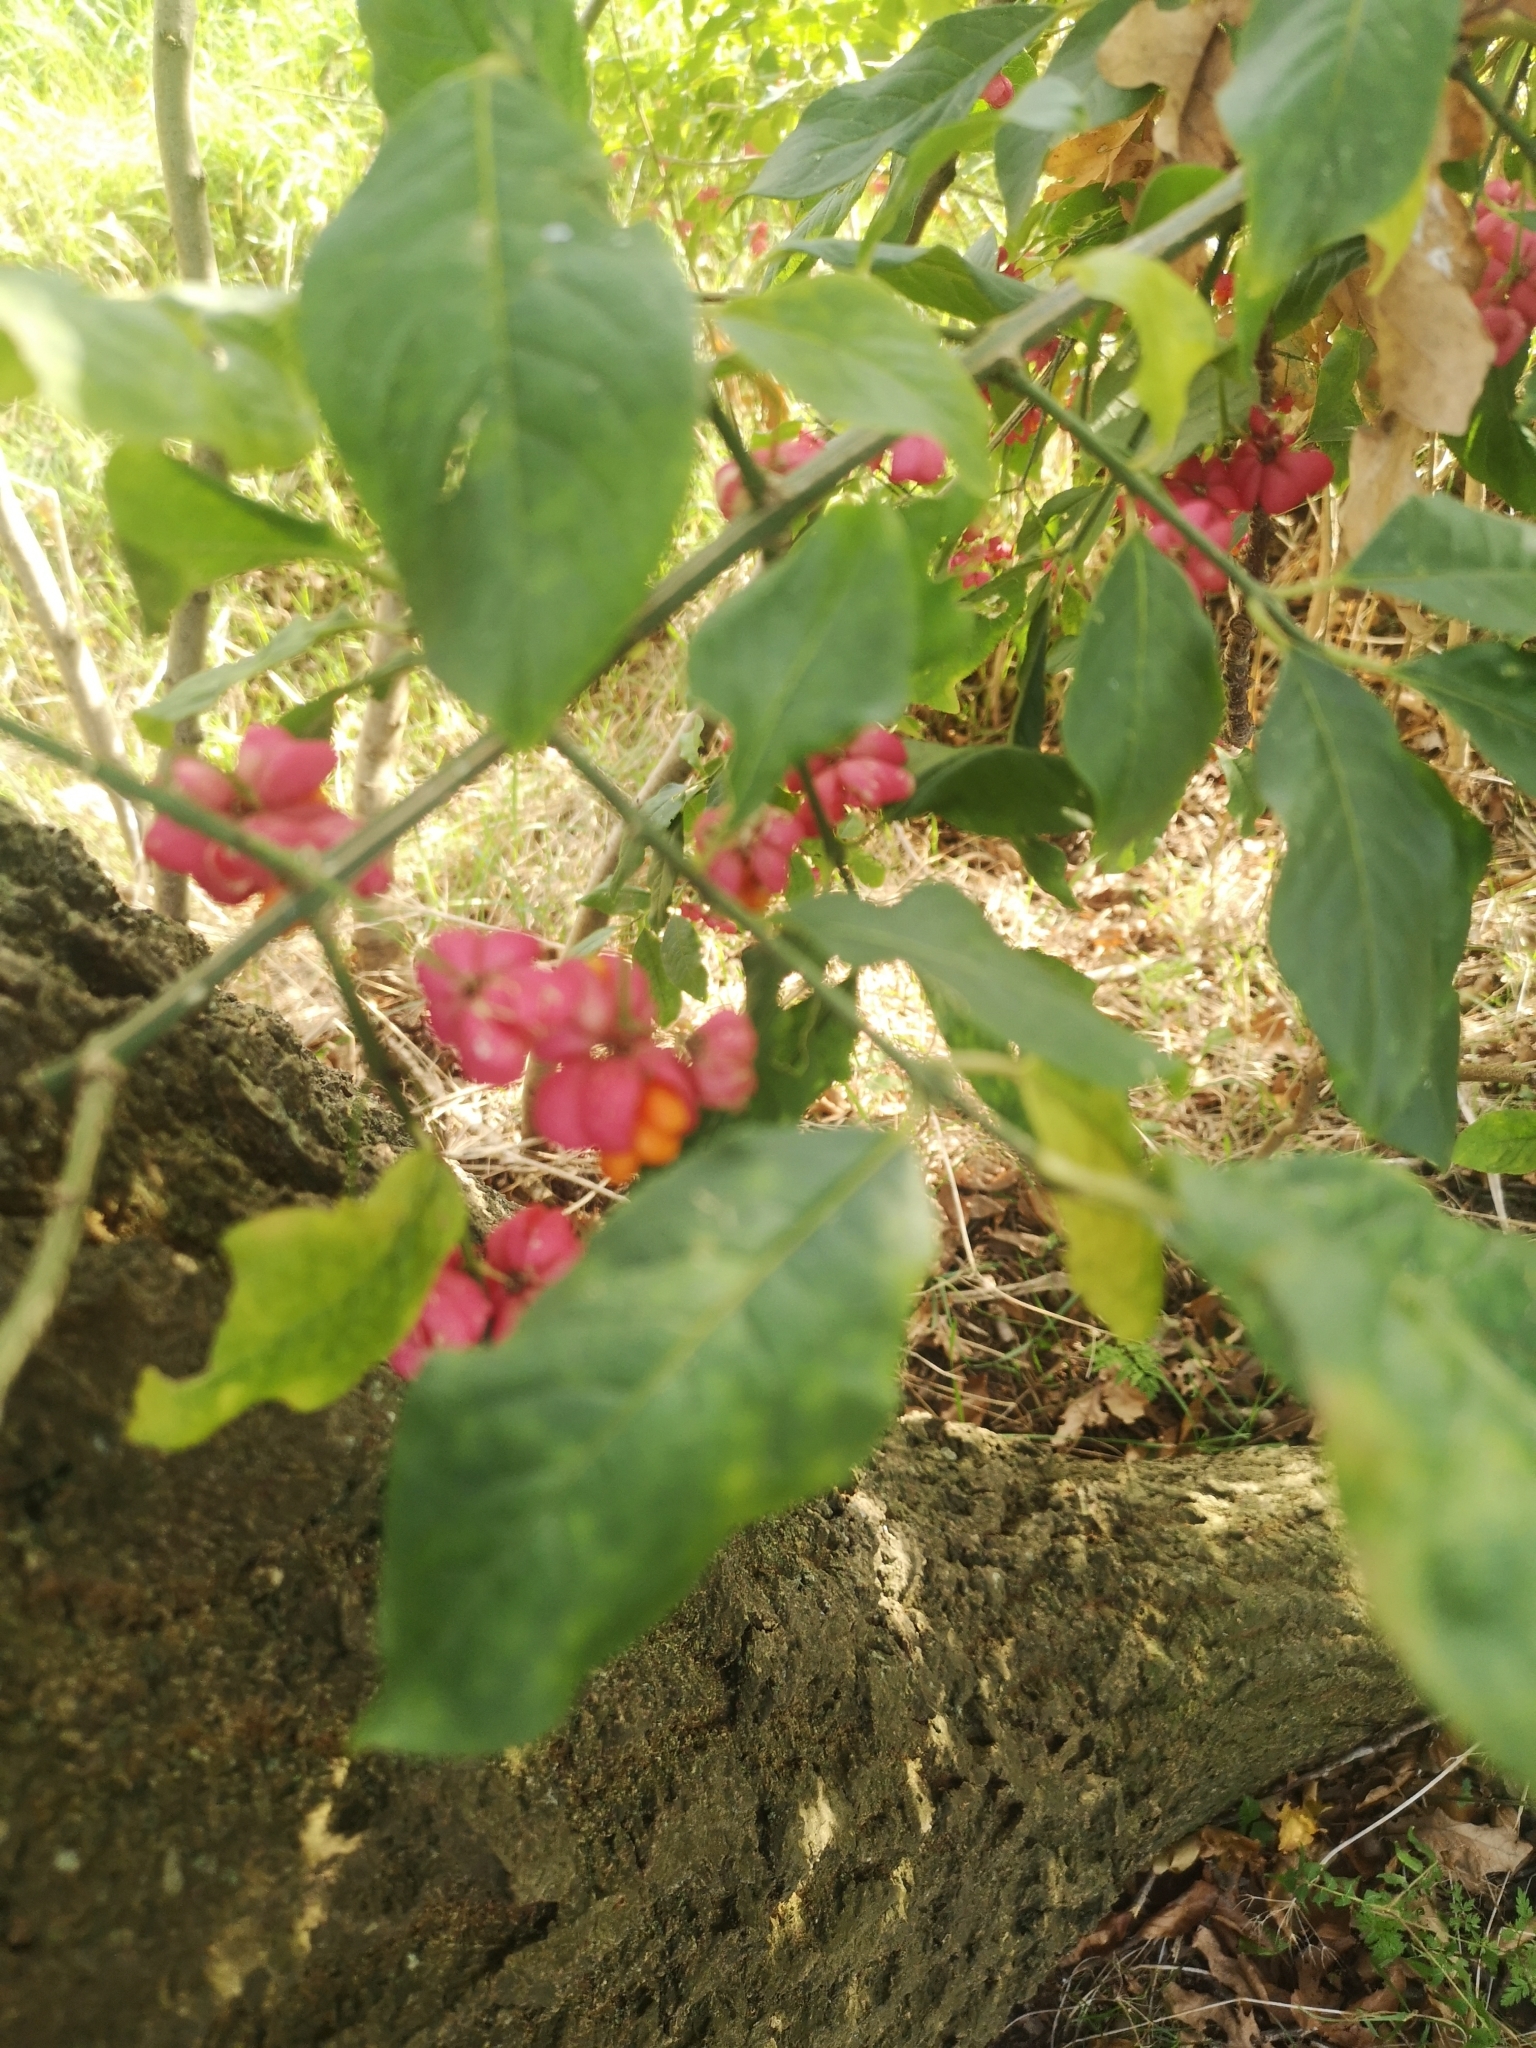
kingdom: Plantae
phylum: Tracheophyta
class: Magnoliopsida
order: Celastrales
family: Celastraceae
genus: Euonymus
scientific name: Euonymus europaeus
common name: Spindle
